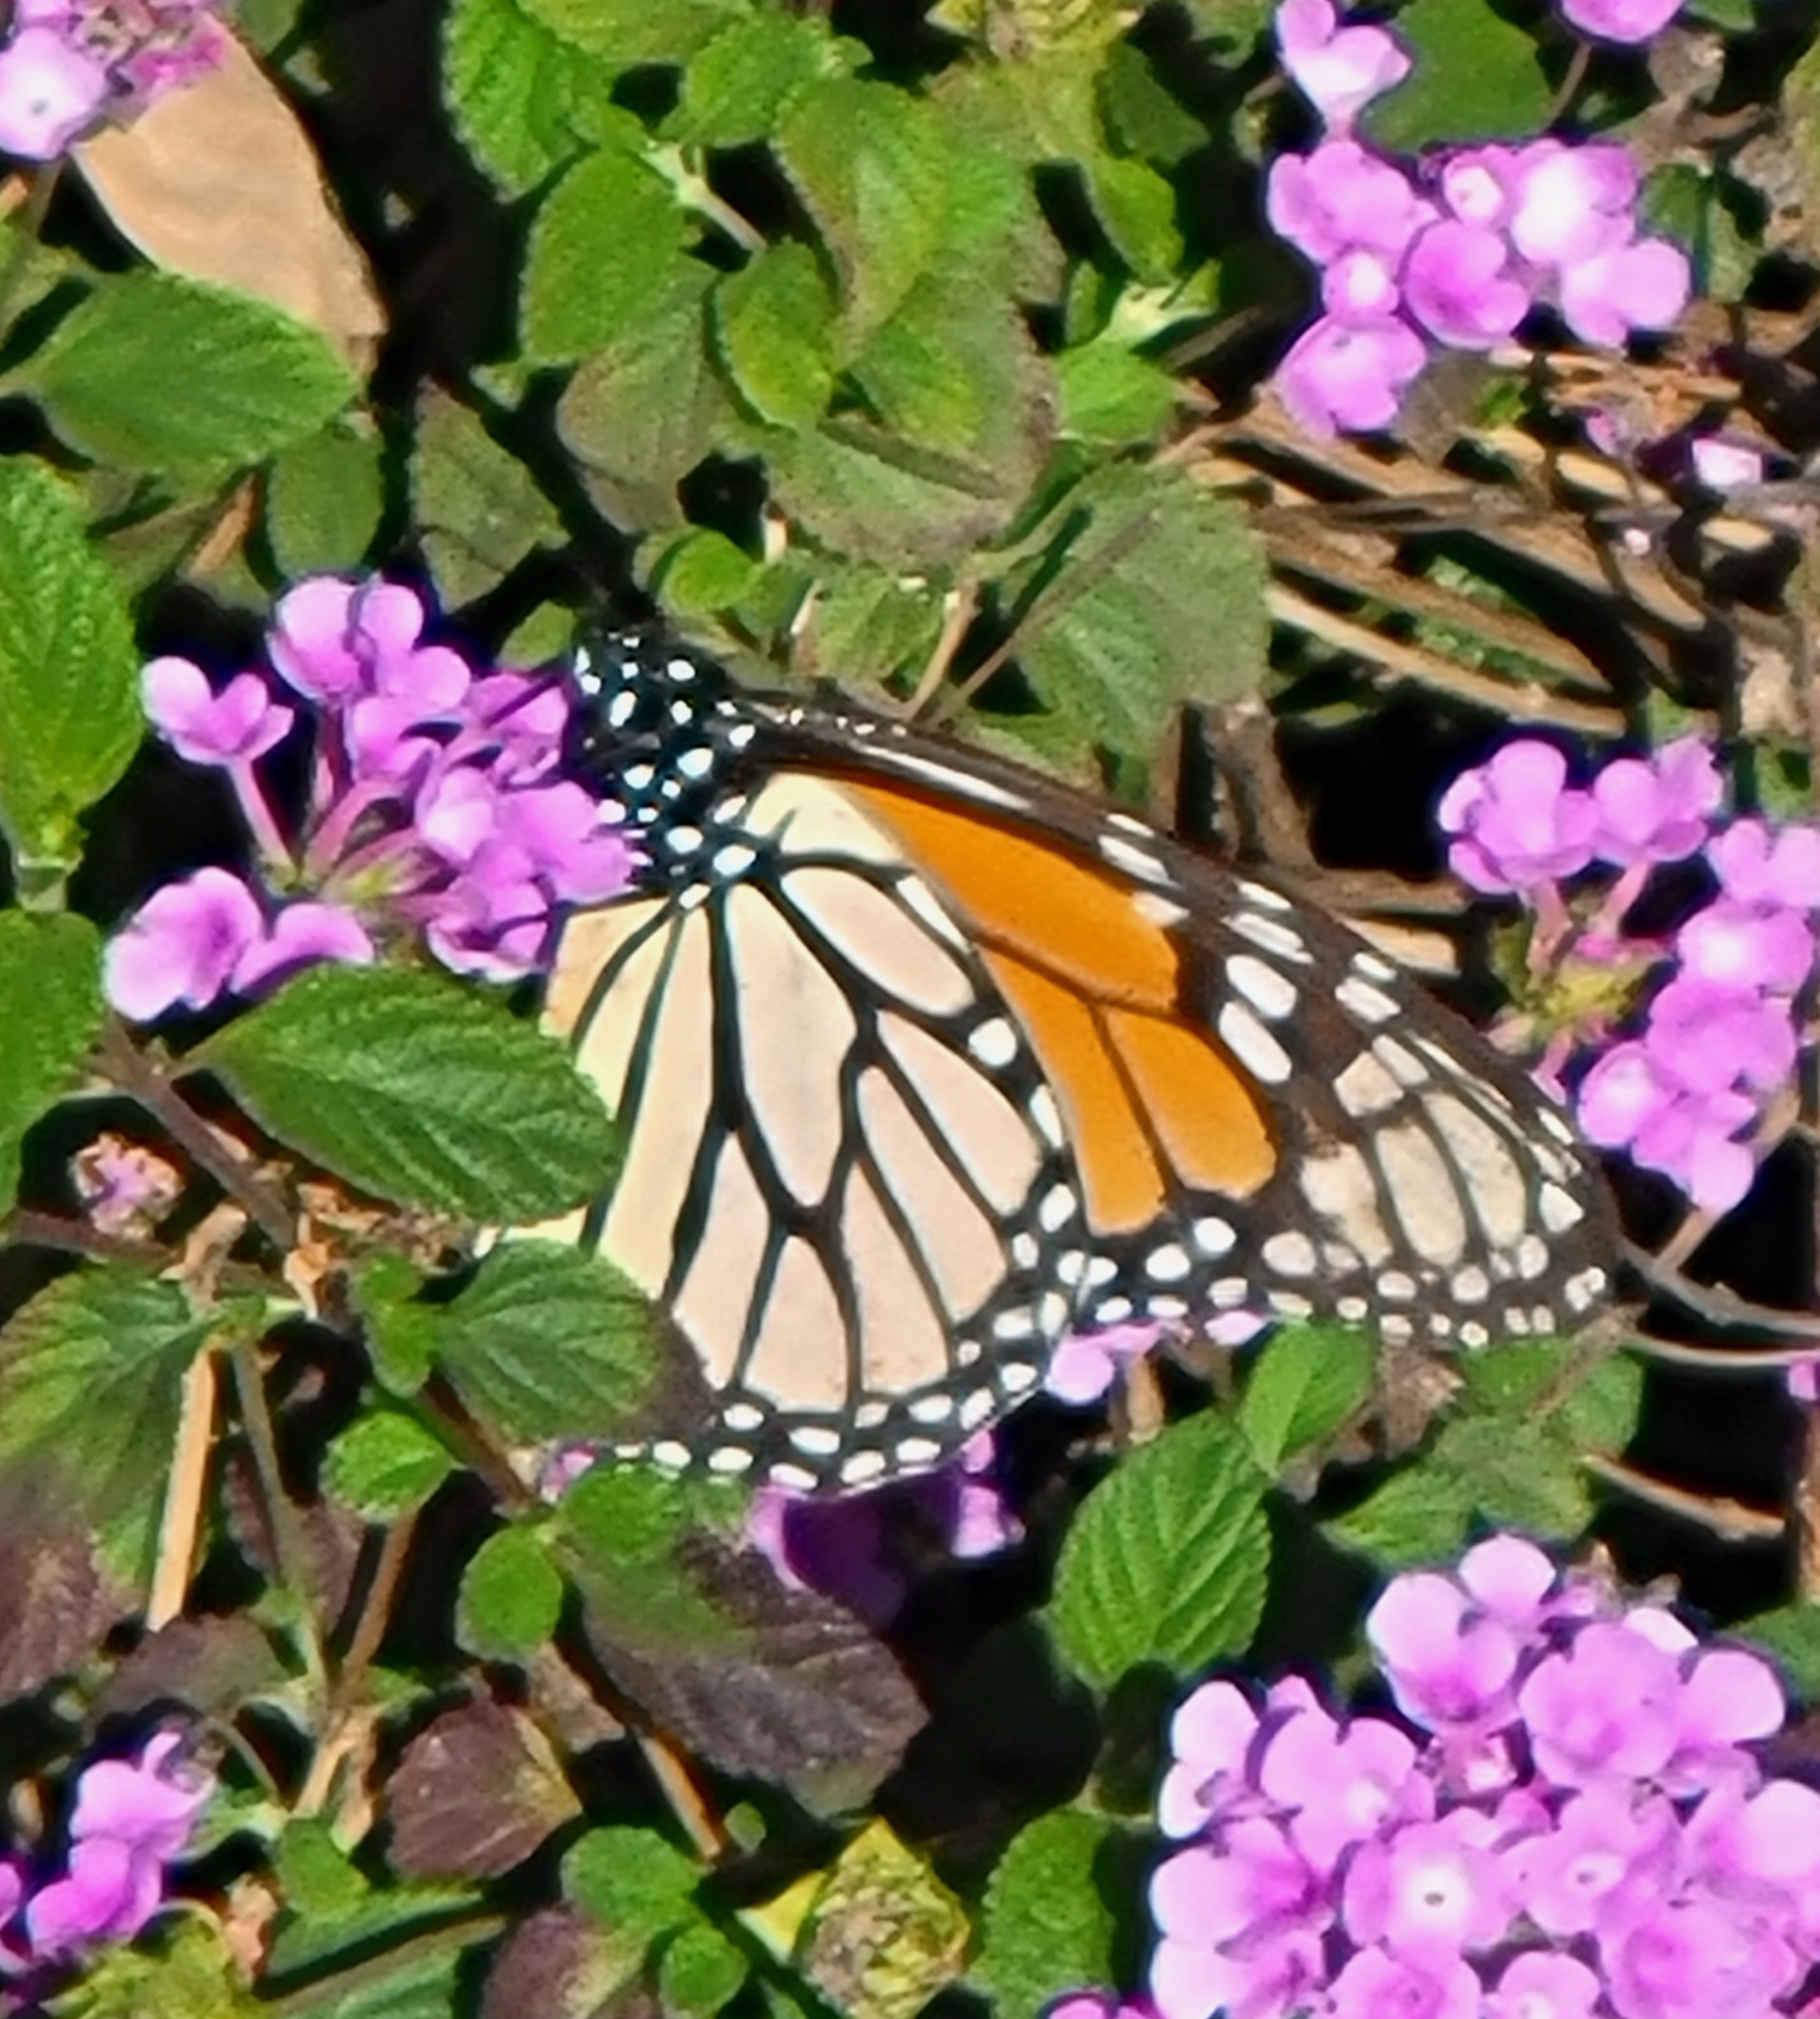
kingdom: Animalia
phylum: Arthropoda
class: Insecta
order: Lepidoptera
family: Nymphalidae
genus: Danaus
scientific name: Danaus plexippus
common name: Monarch
